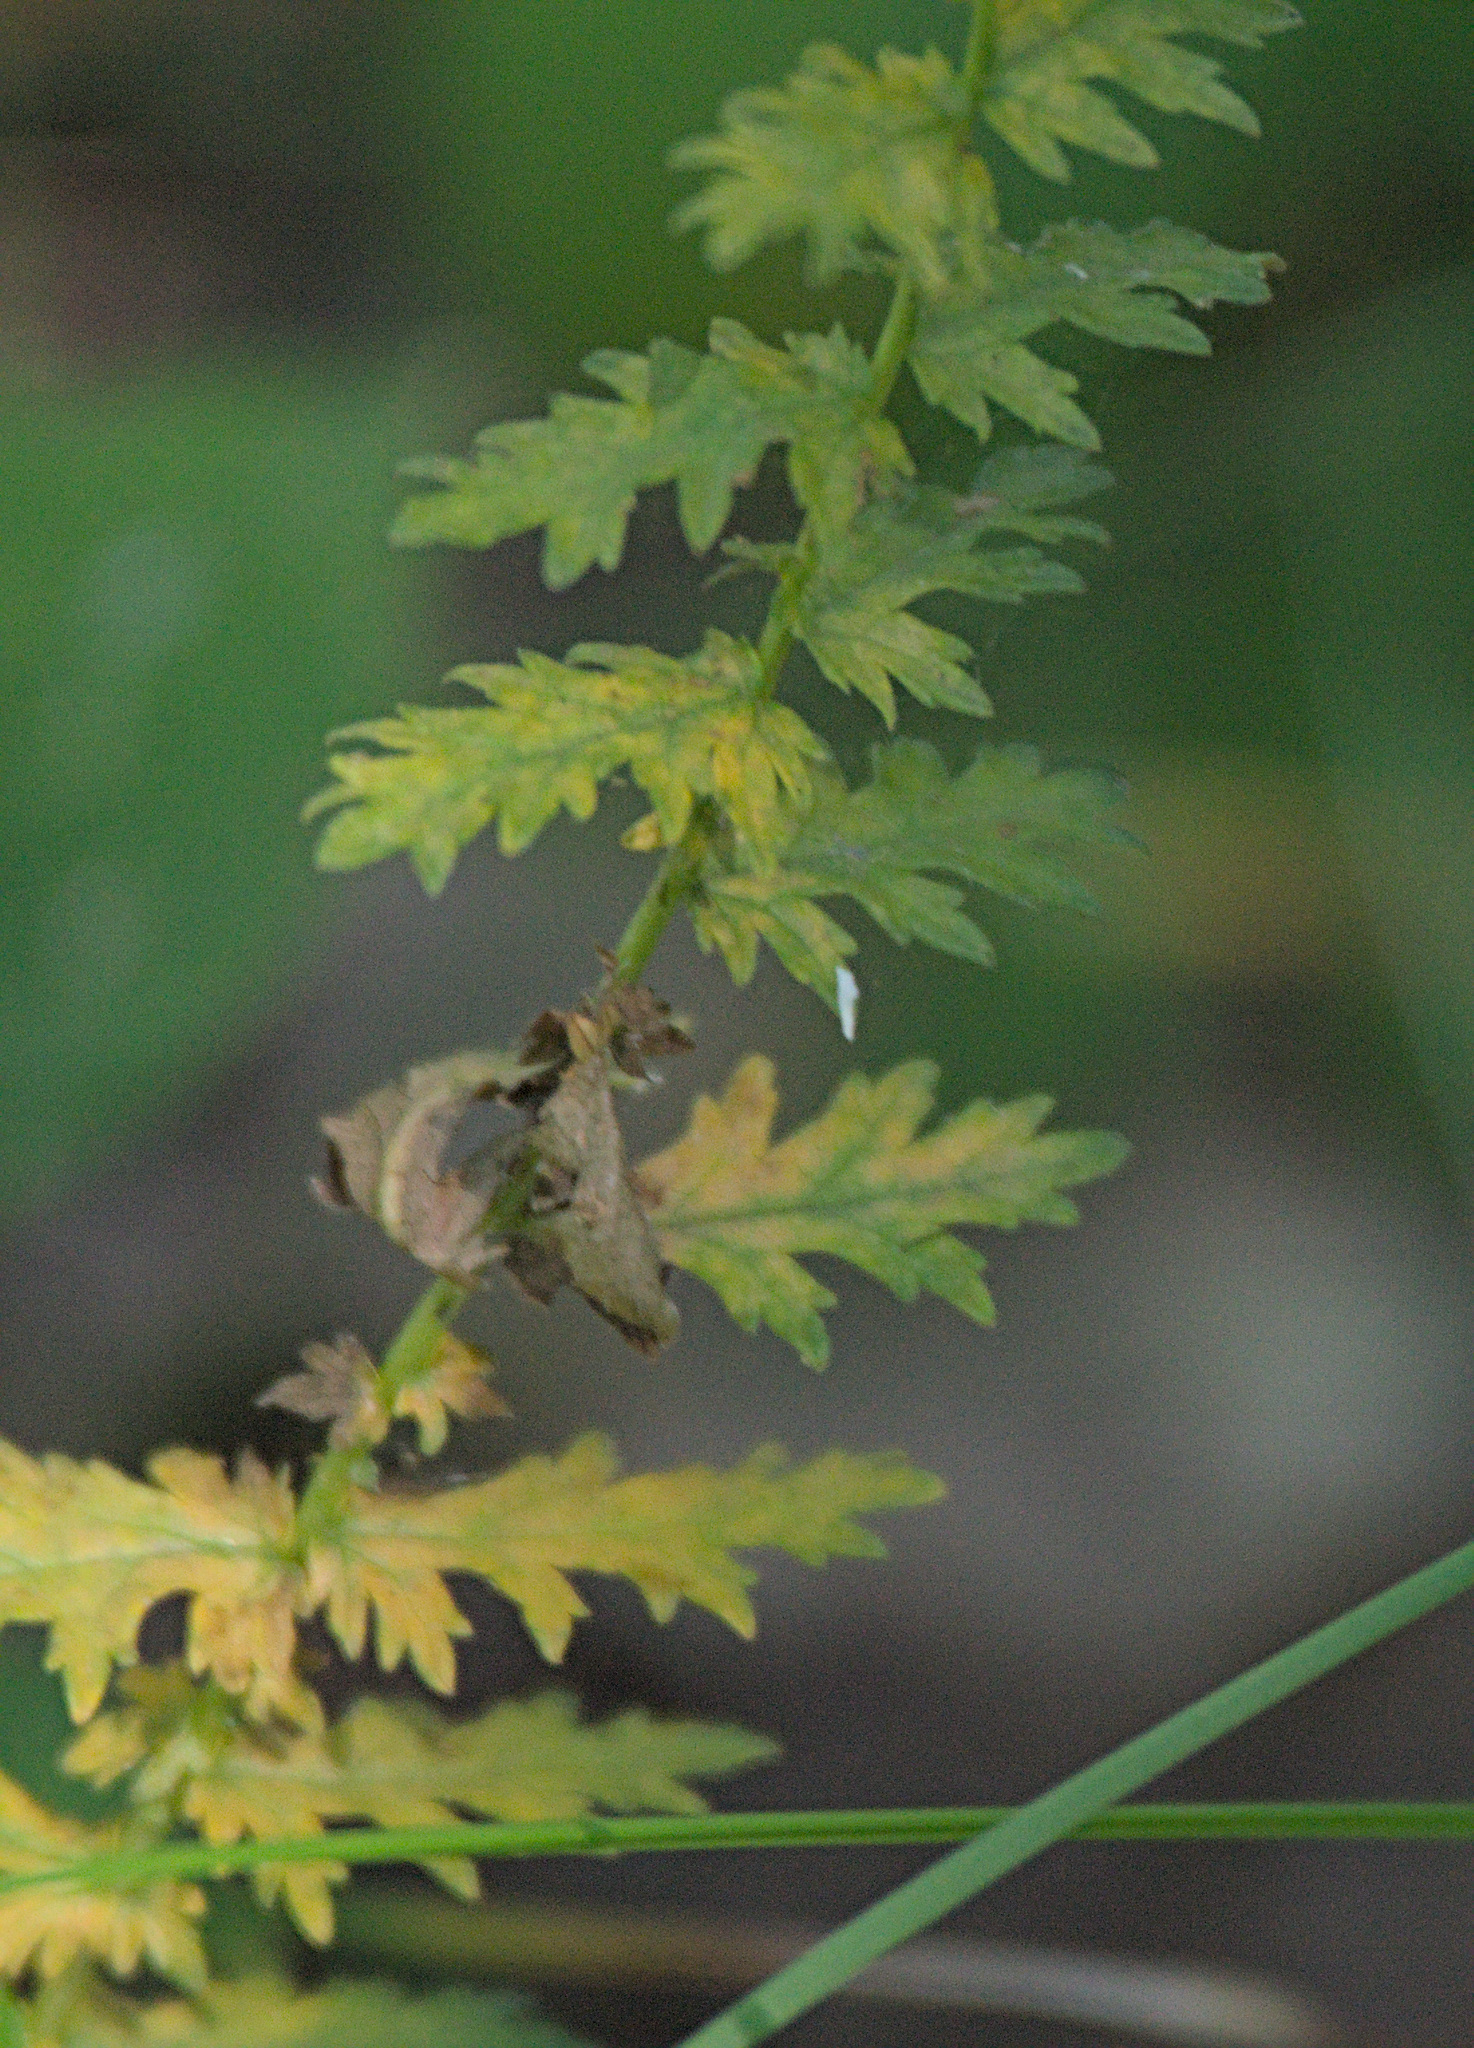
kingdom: Plantae
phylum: Tracheophyta
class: Magnoliopsida
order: Rosales
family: Rosaceae
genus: Filipendula
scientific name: Filipendula vulgaris
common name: Dropwort
